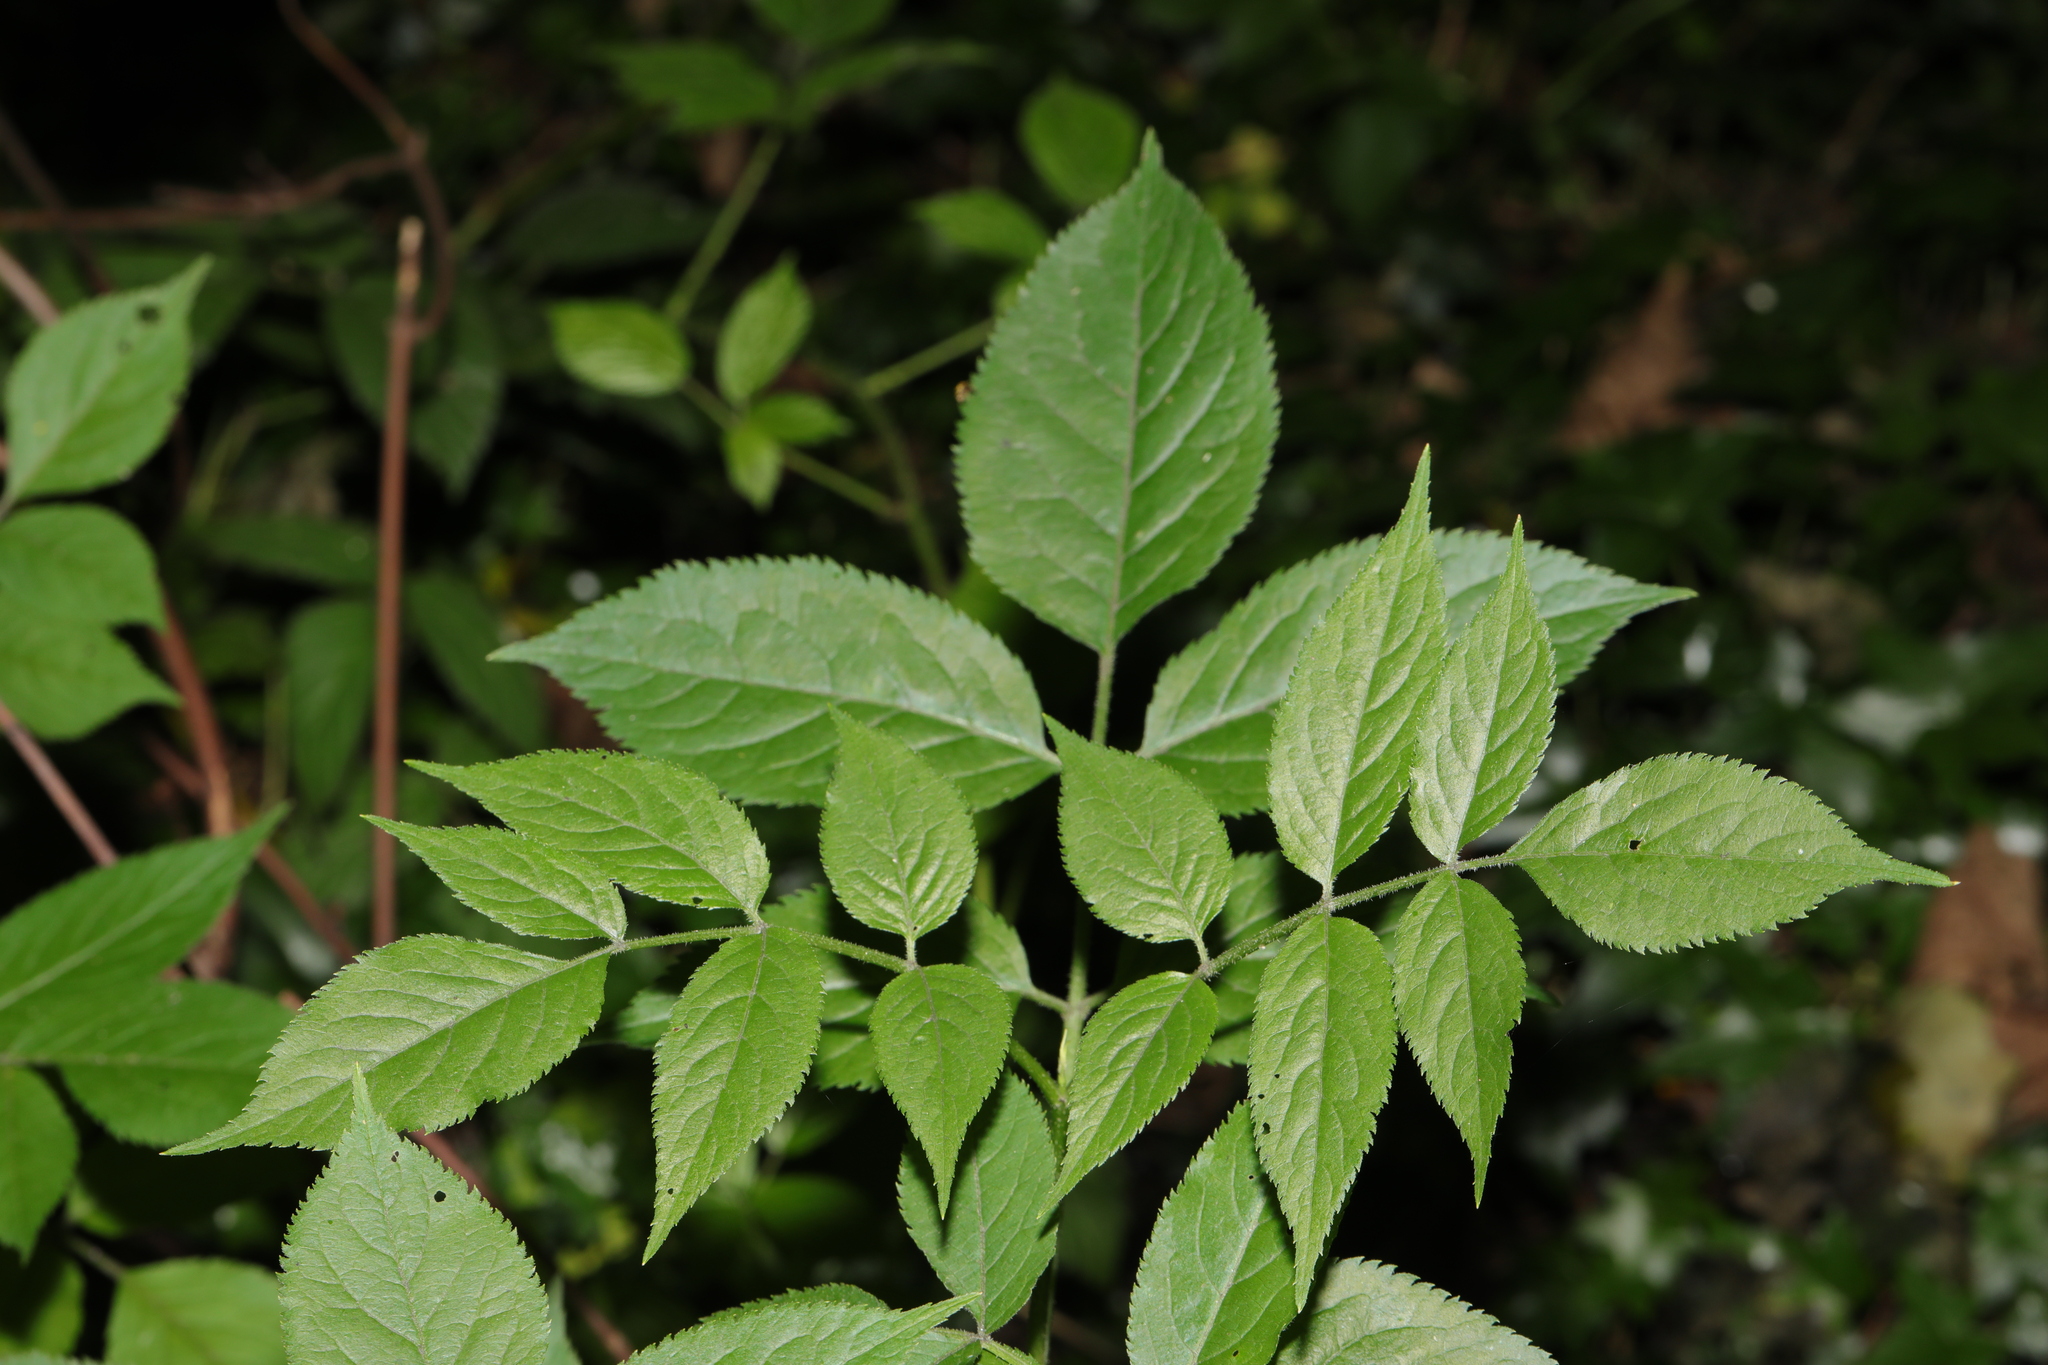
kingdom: Plantae
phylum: Tracheophyta
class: Magnoliopsida
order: Dipsacales
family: Viburnaceae
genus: Sambucus
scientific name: Sambucus nigra
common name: Elder
